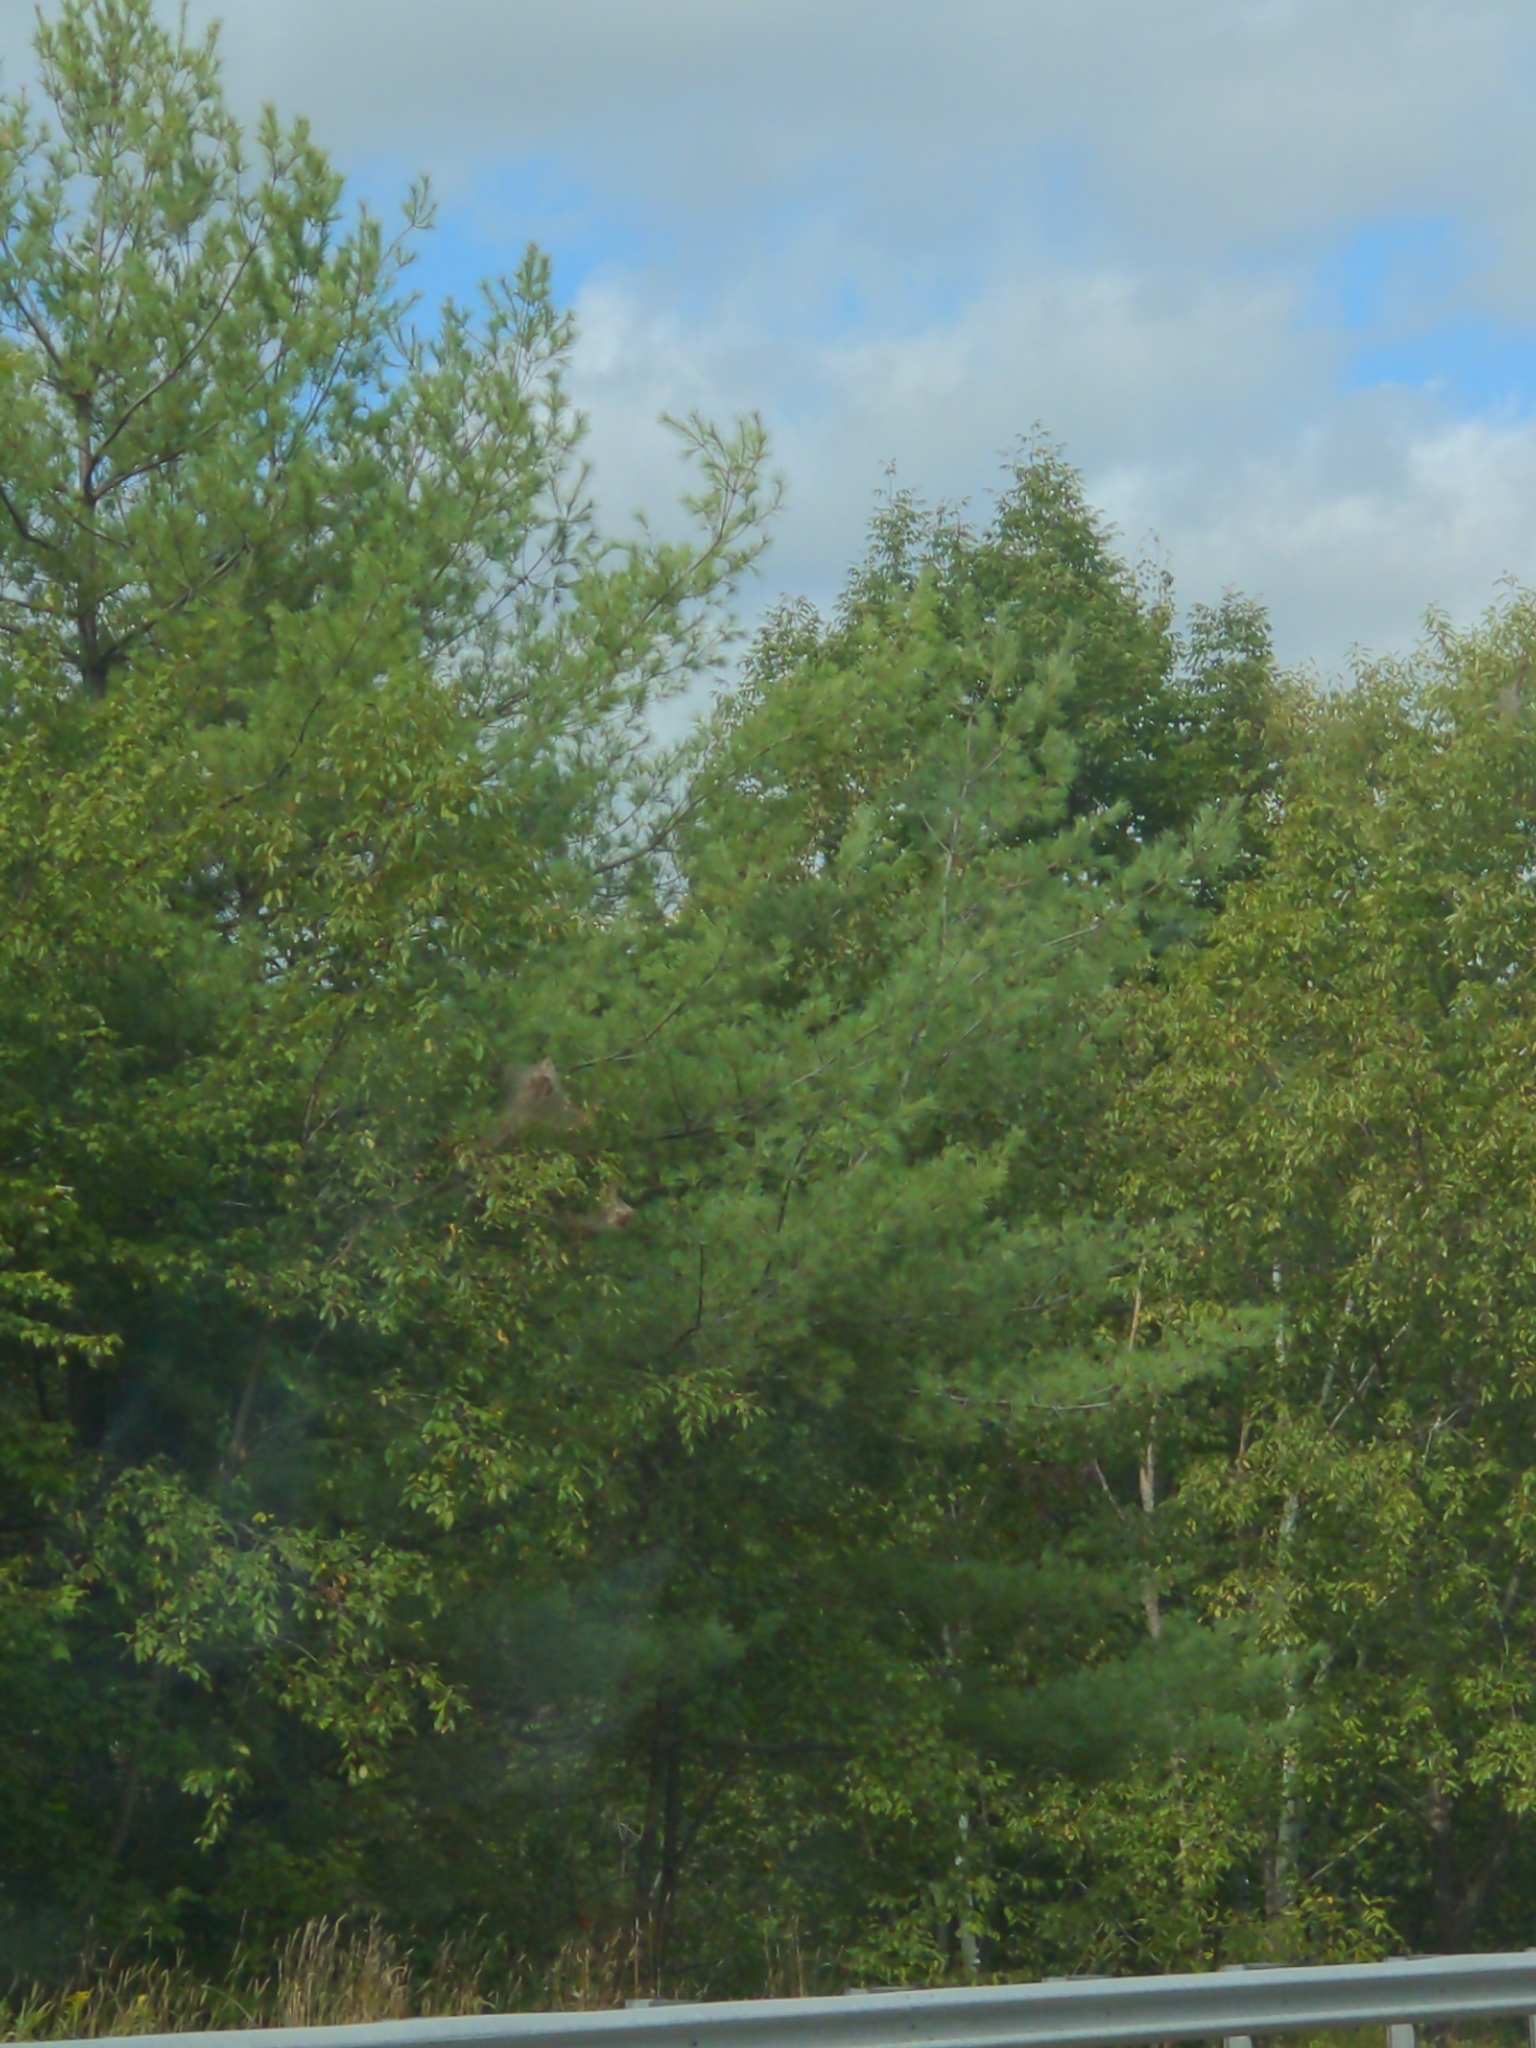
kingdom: Plantae
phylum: Tracheophyta
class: Pinopsida
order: Pinales
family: Pinaceae
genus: Pinus
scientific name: Pinus strobus
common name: Weymouth pine
